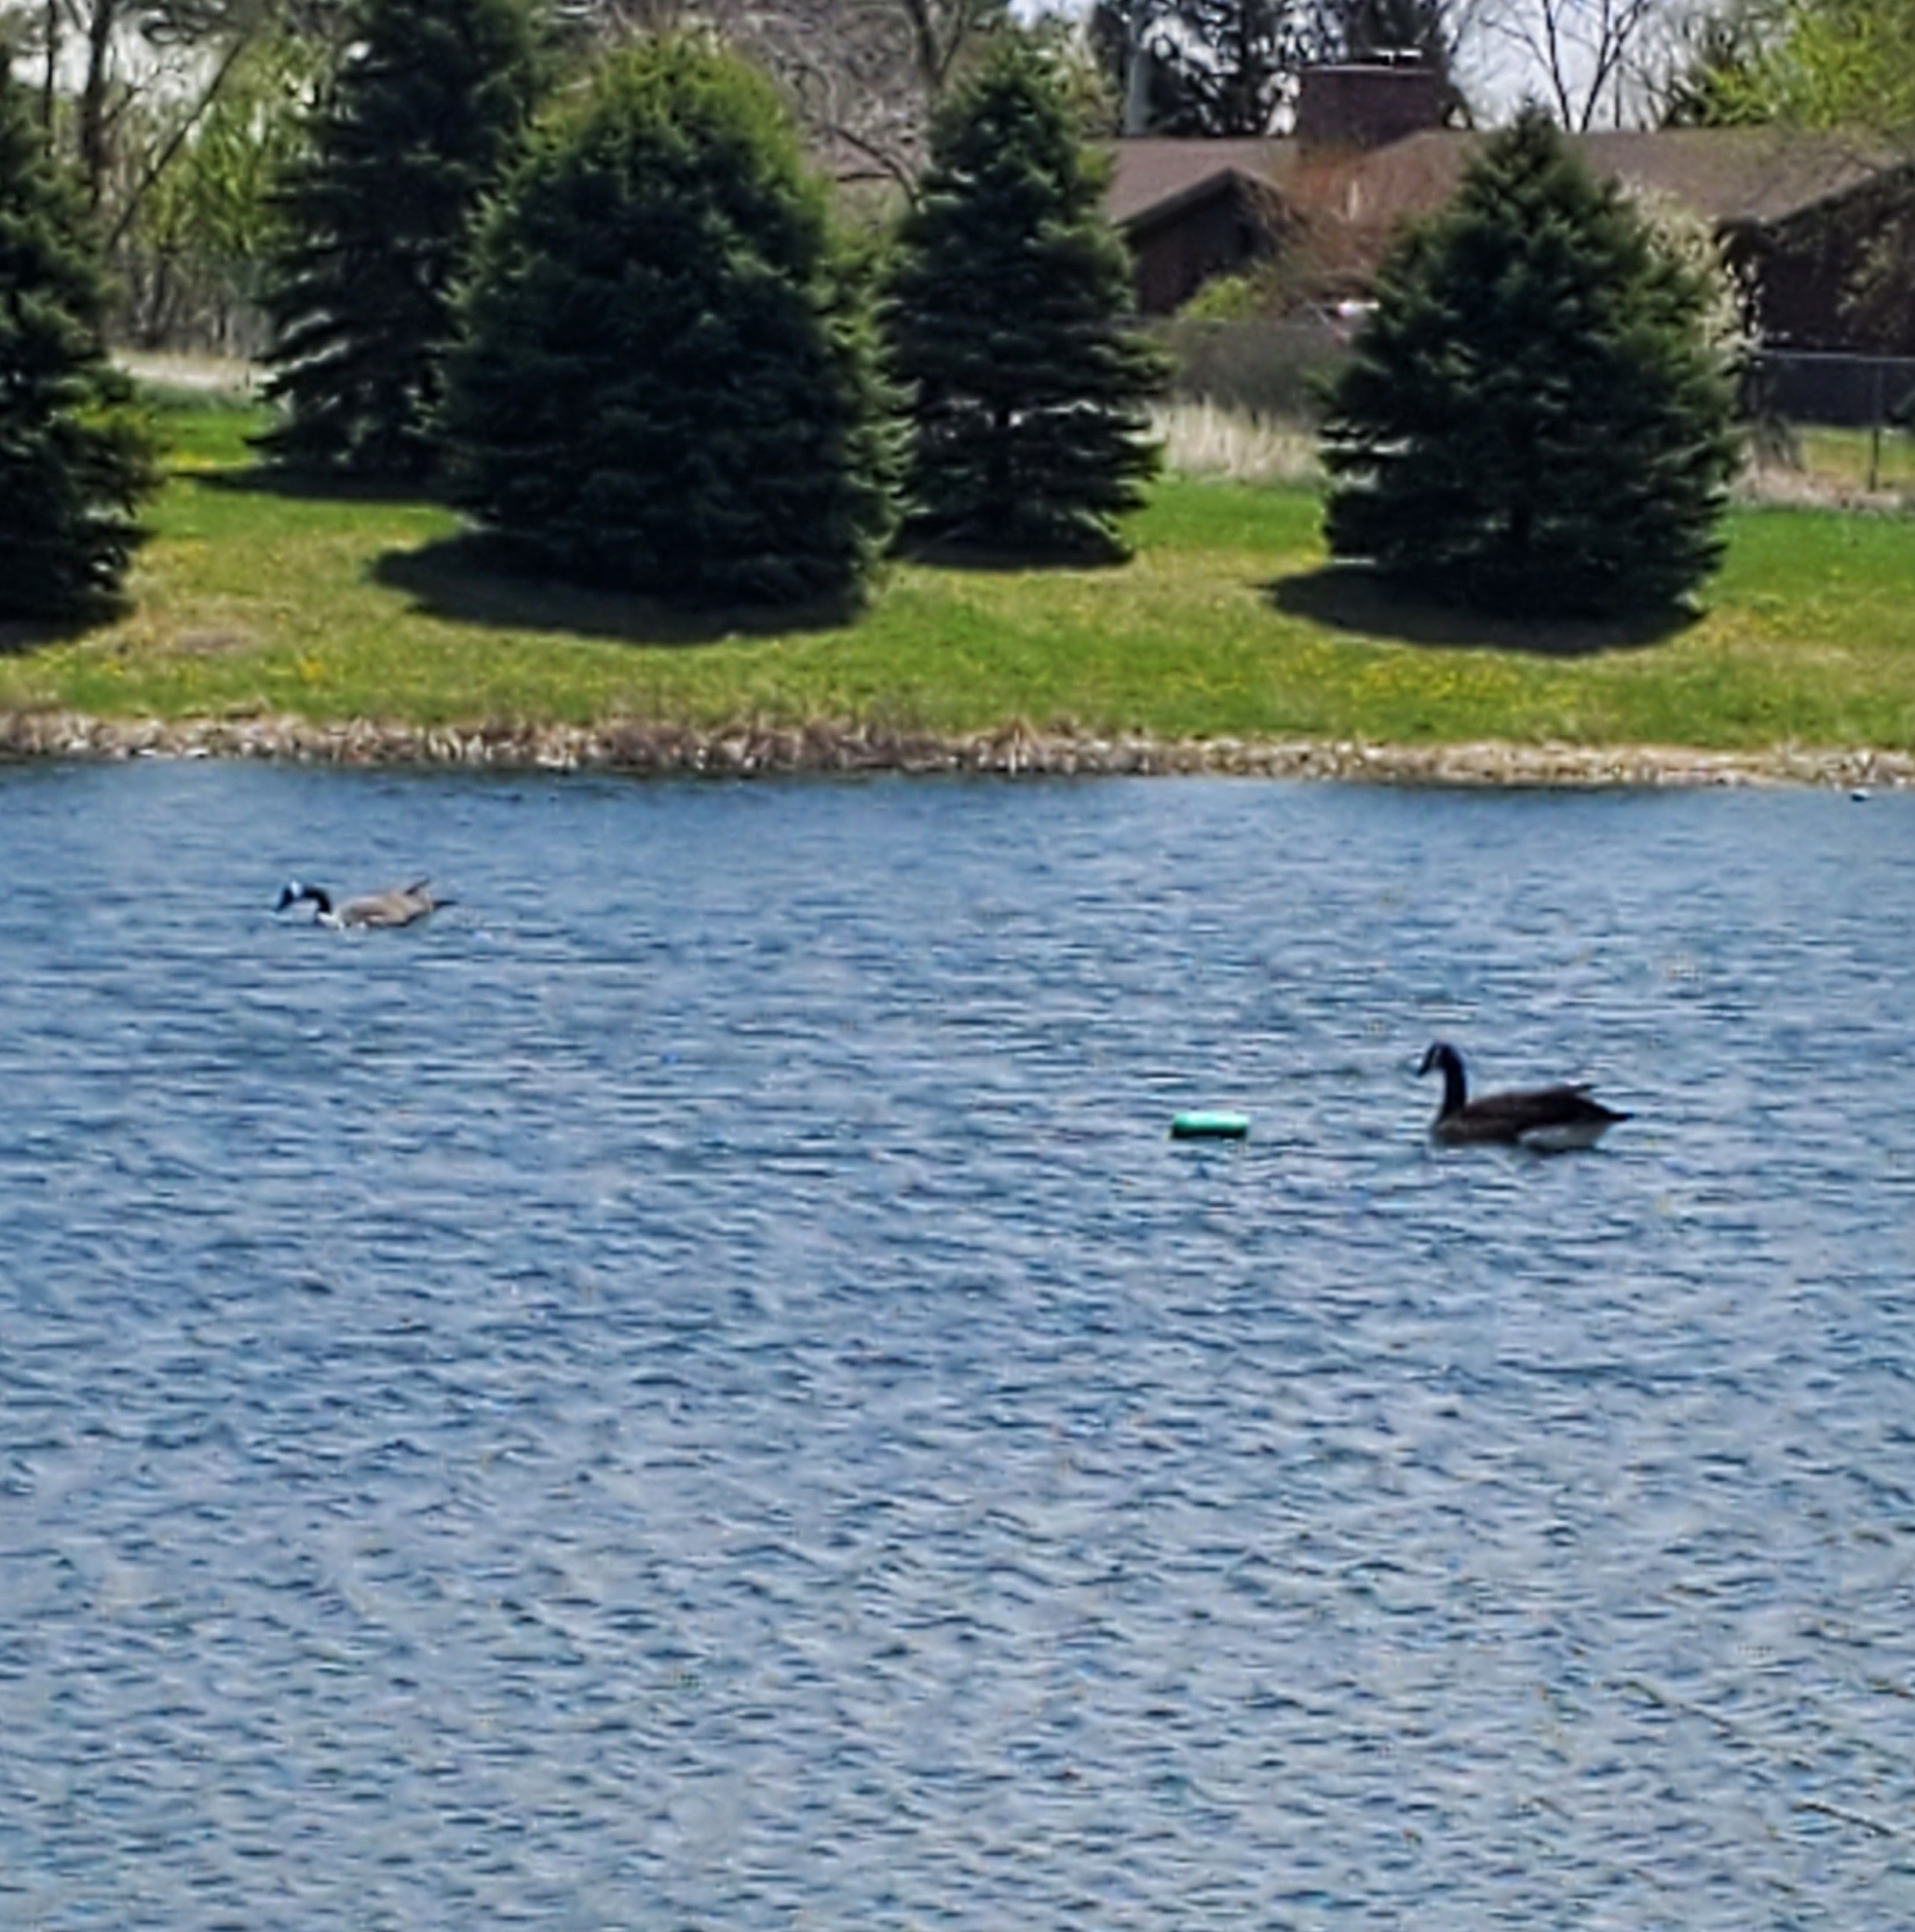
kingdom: Animalia
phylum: Chordata
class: Aves
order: Anseriformes
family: Anatidae
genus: Branta
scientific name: Branta canadensis
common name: Canada goose
